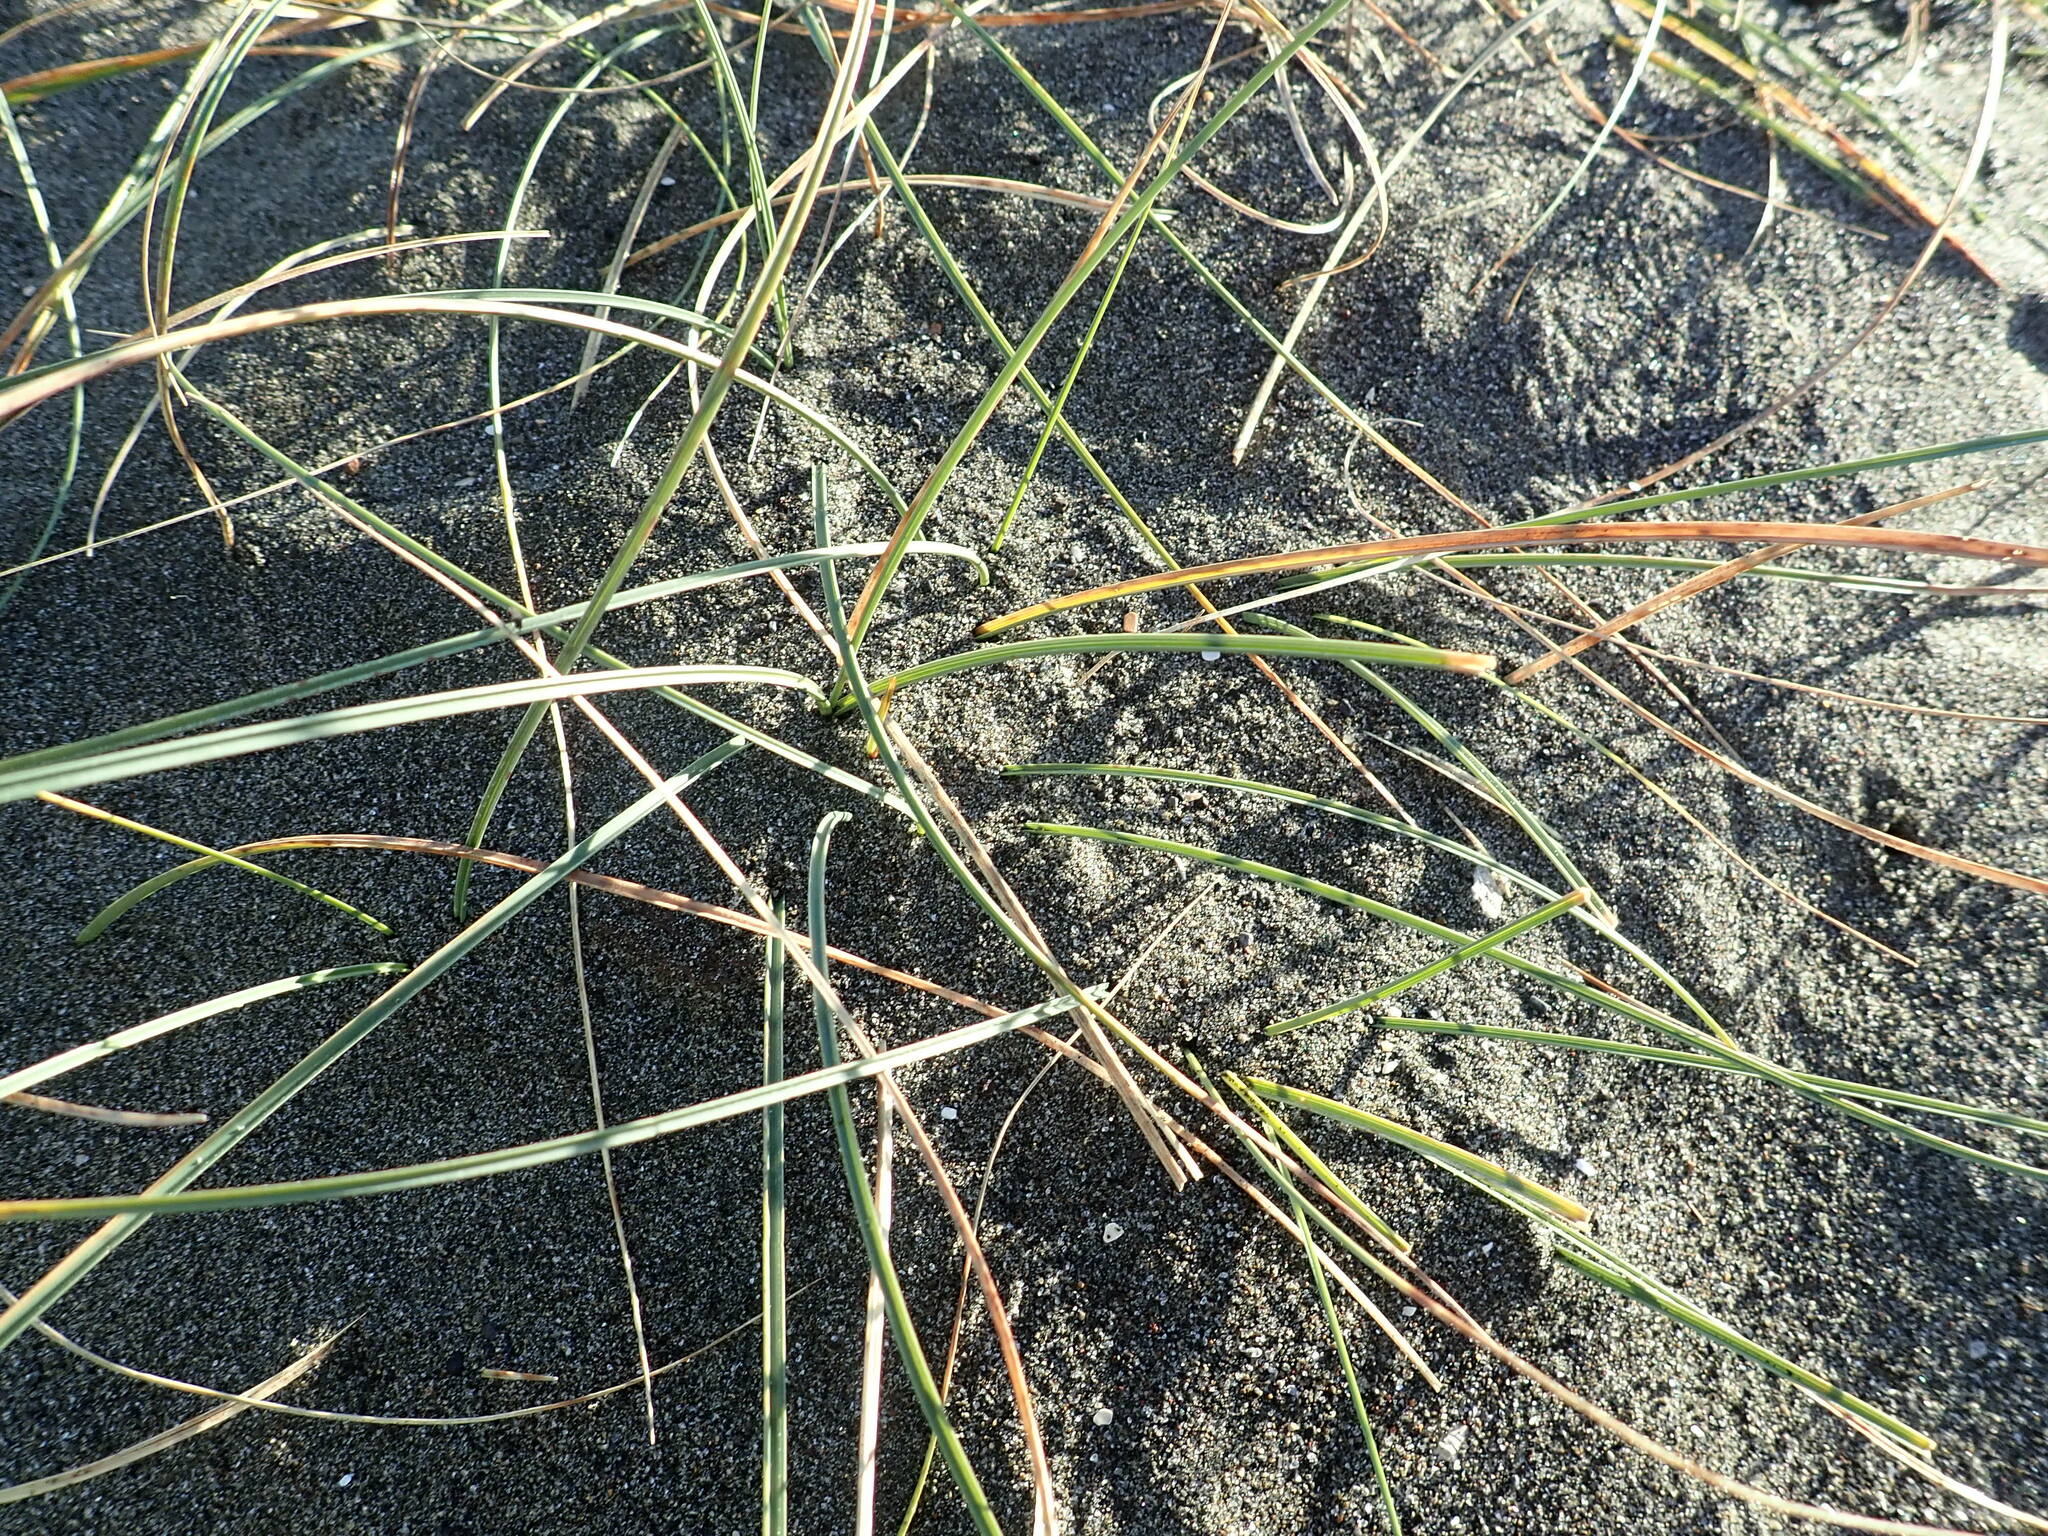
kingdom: Plantae
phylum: Tracheophyta
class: Liliopsida
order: Poales
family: Cyperaceae
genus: Carex
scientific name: Carex pumila
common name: Dwarf sedge
